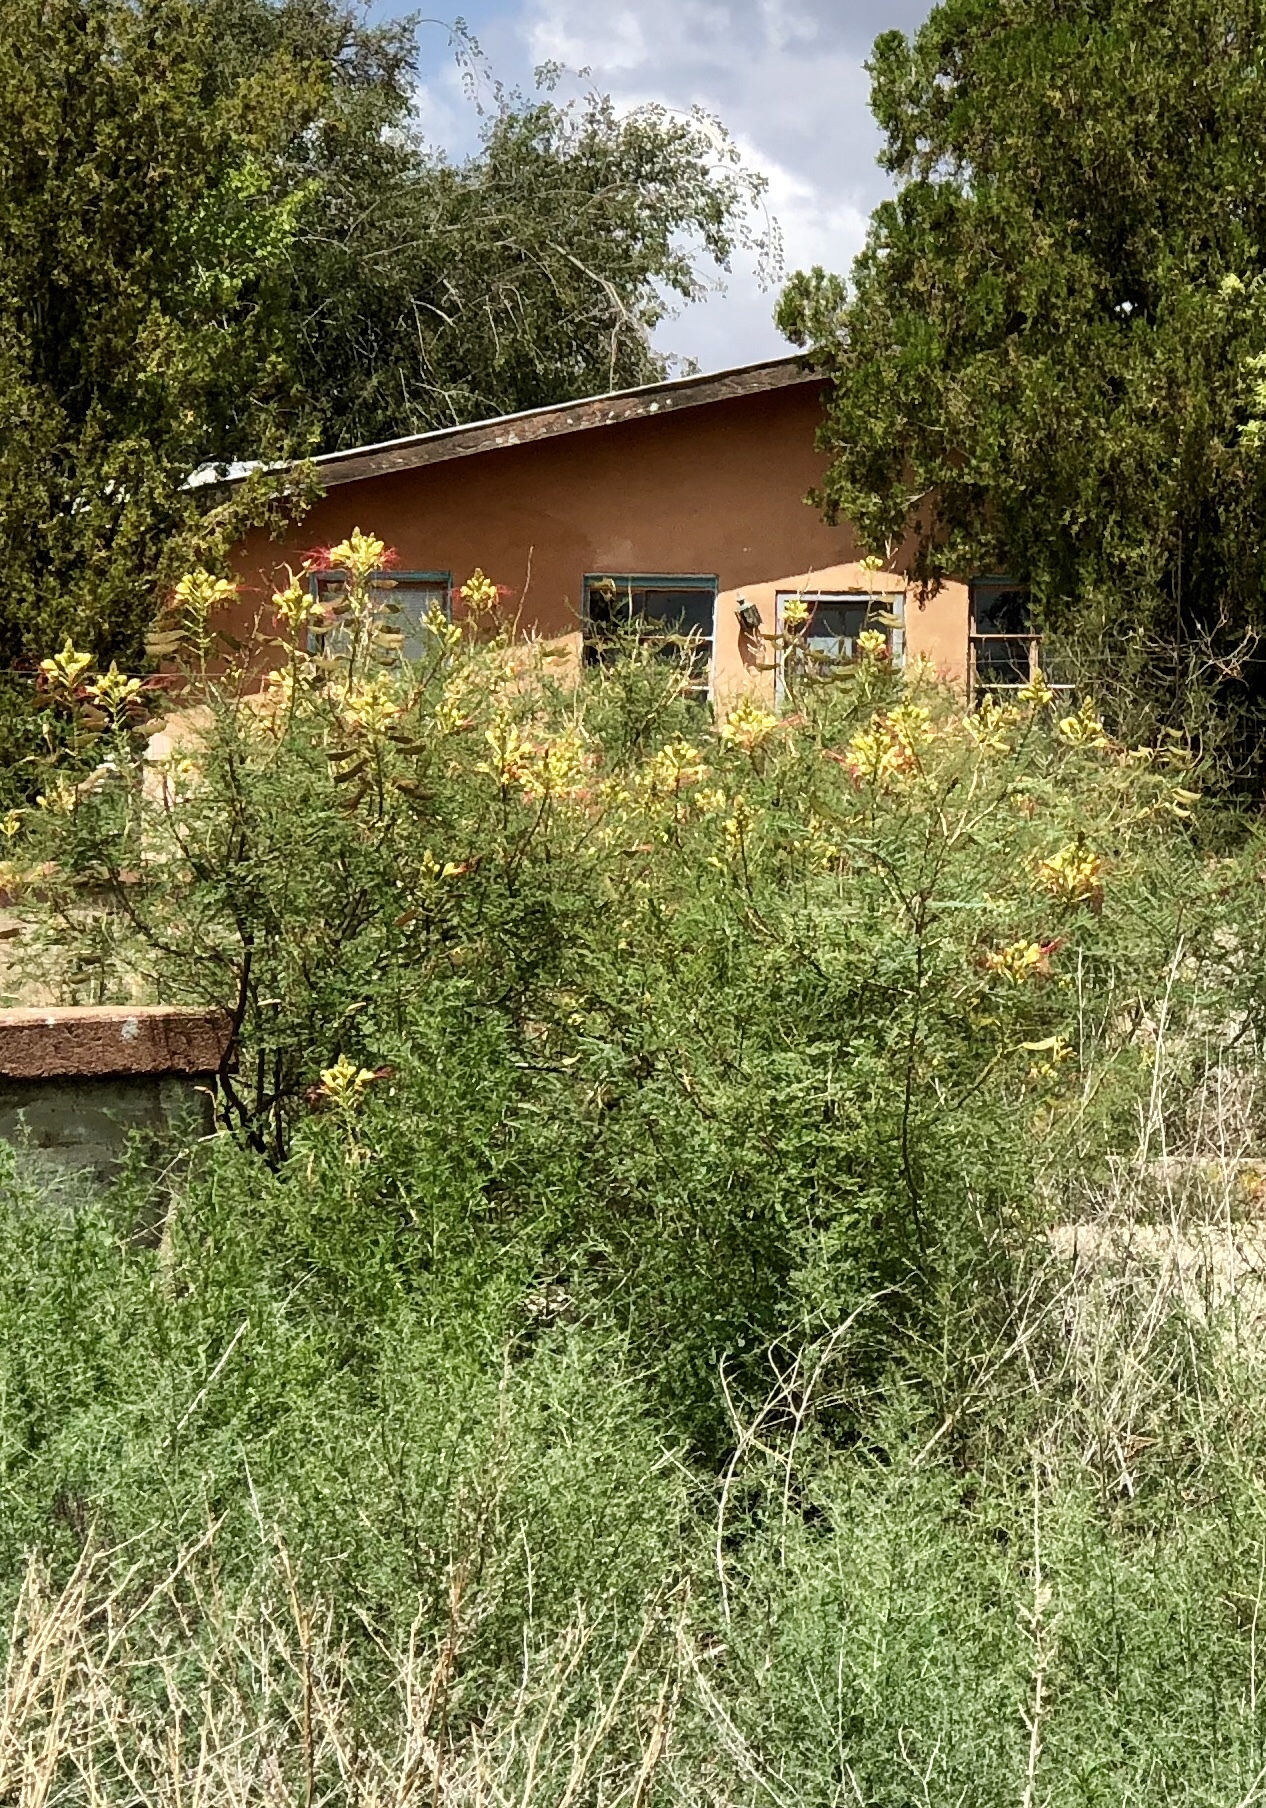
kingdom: Plantae
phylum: Tracheophyta
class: Magnoliopsida
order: Fabales
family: Fabaceae
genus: Erythrostemon
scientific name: Erythrostemon gilliesii
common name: Bird-of-paradise shrub
